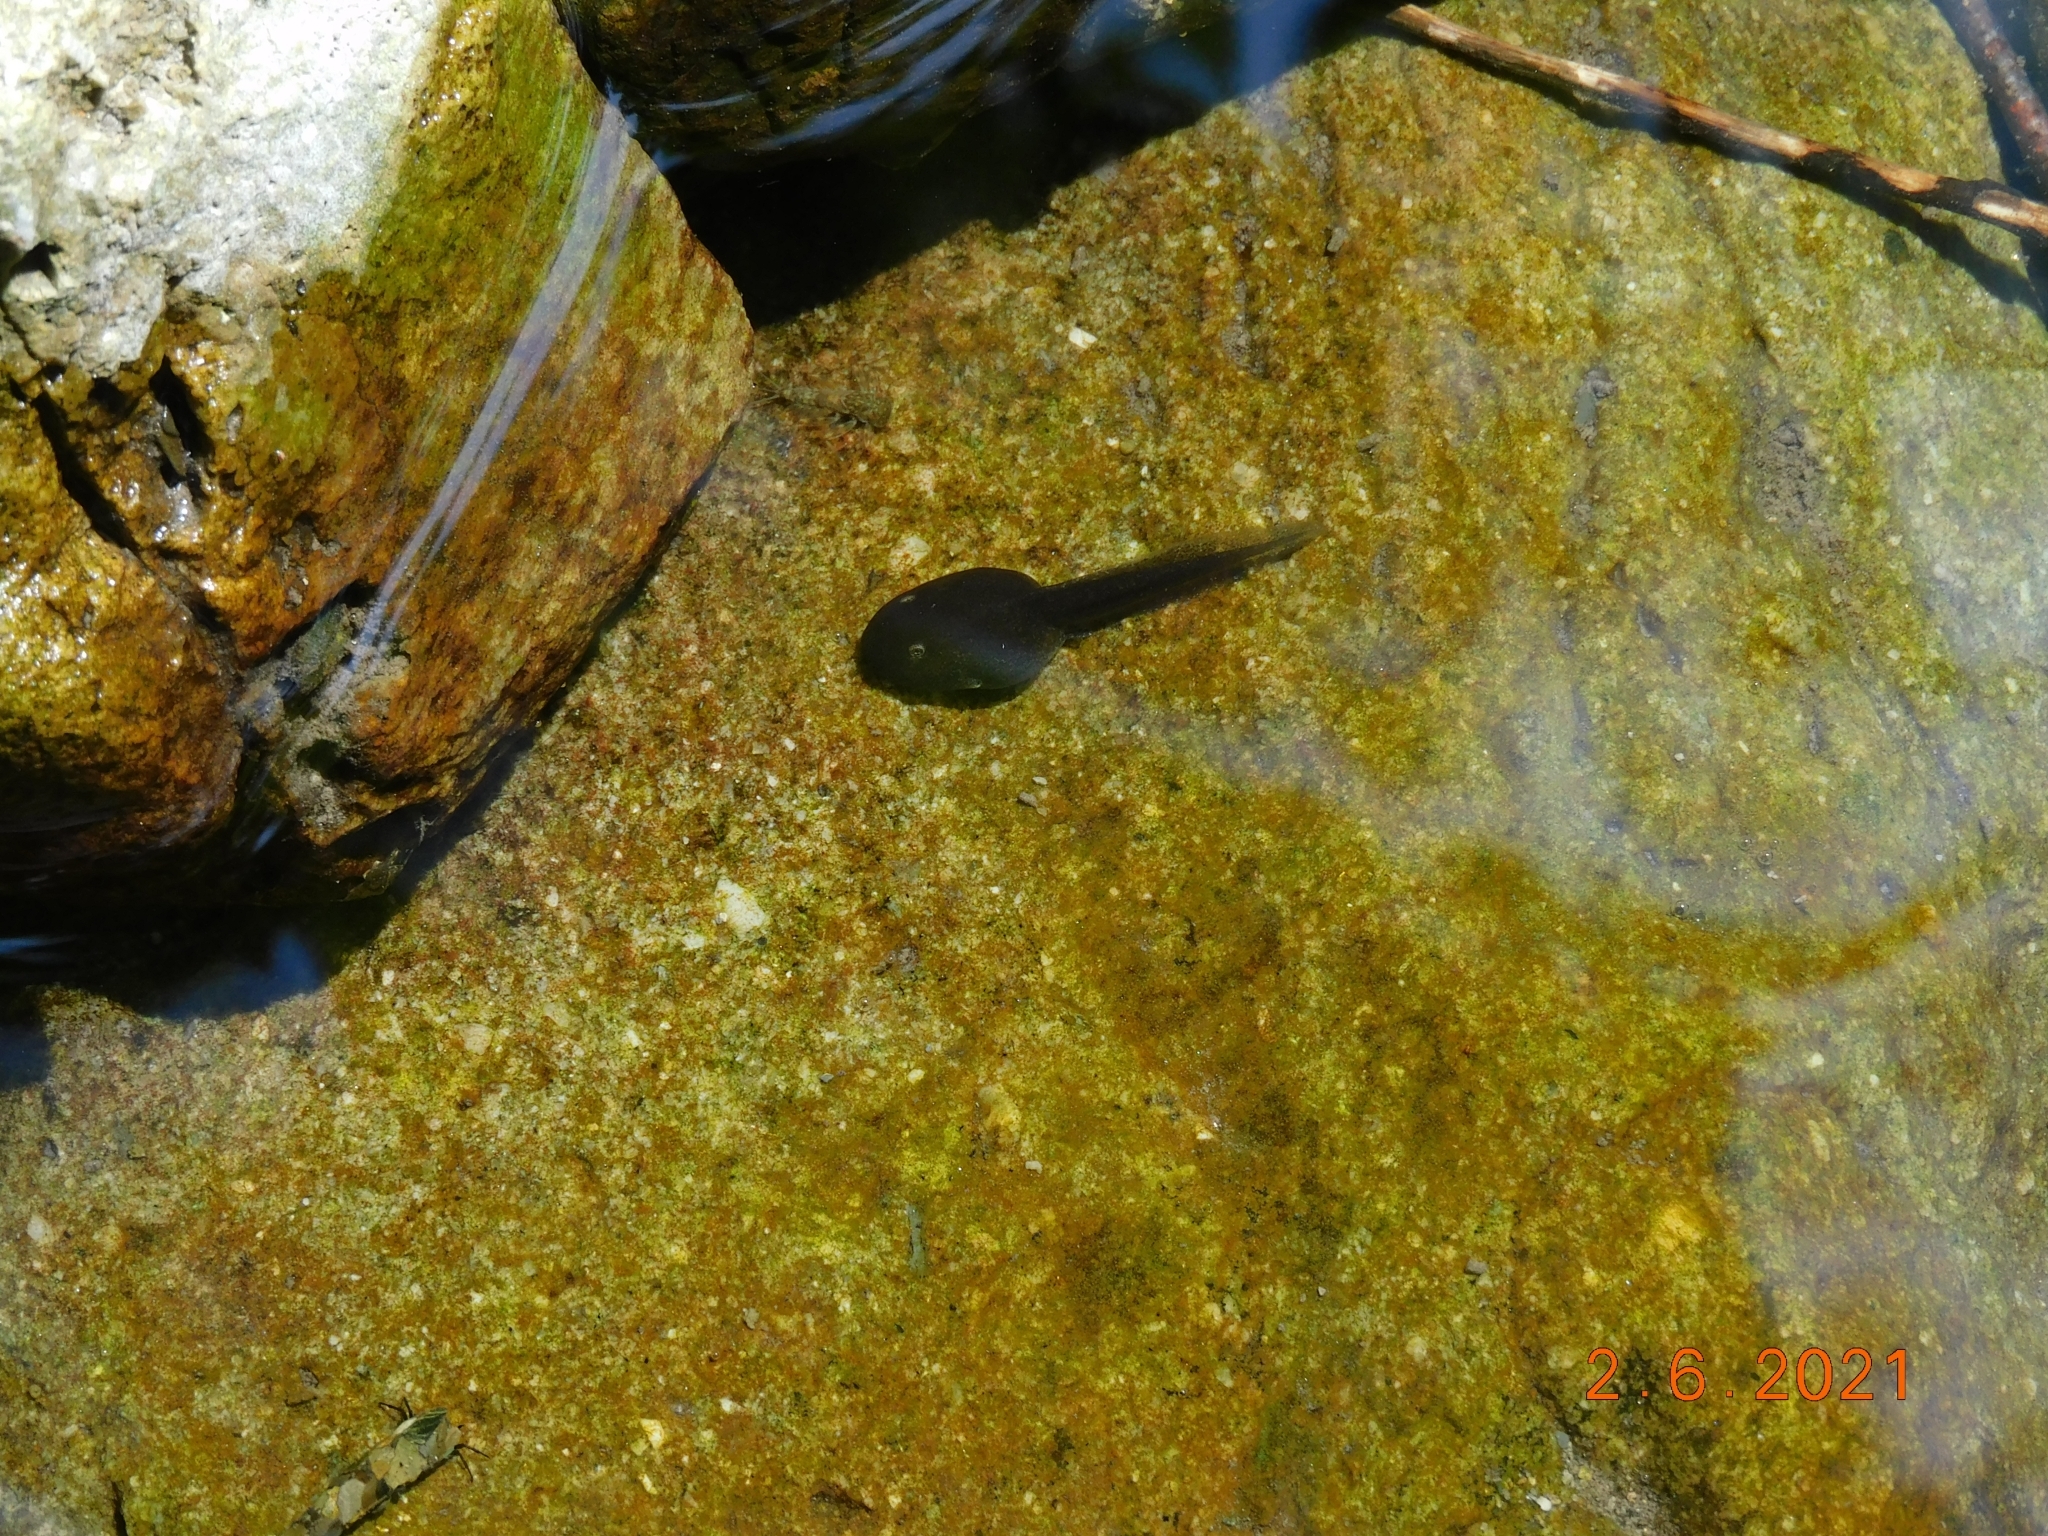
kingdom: Animalia
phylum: Chordata
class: Amphibia
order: Anura
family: Ranidae
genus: Rana
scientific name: Rana italica
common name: Italian stream frog
